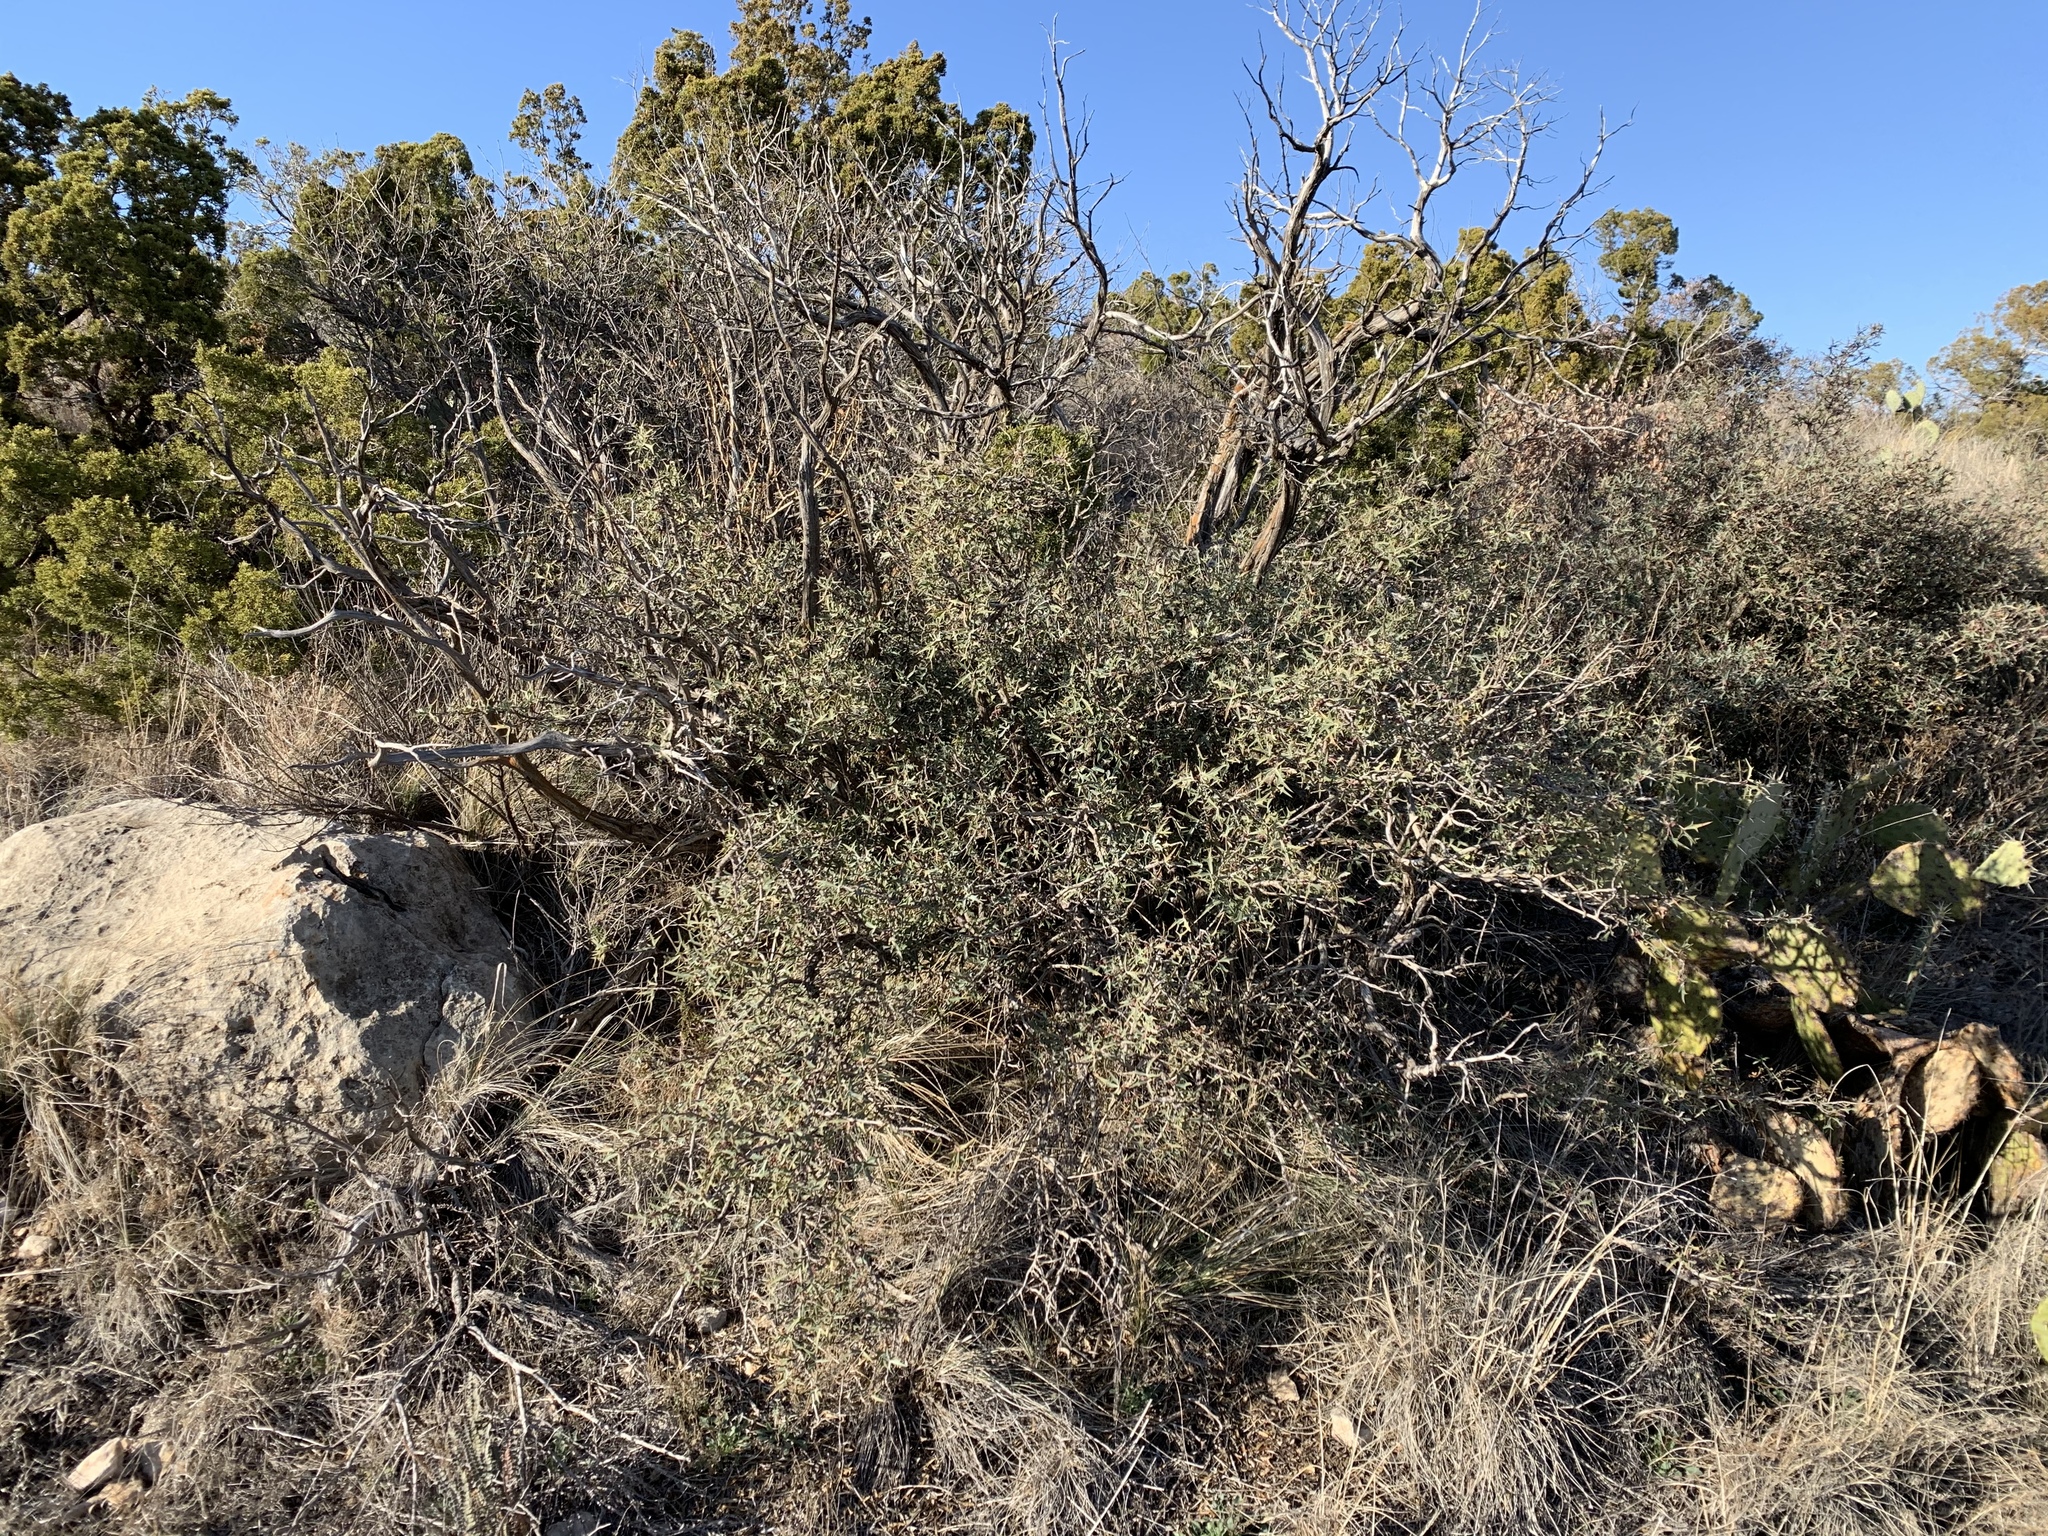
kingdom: Plantae
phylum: Tracheophyta
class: Magnoliopsida
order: Ranunculales
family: Berberidaceae
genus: Alloberberis
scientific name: Alloberberis trifoliolata
